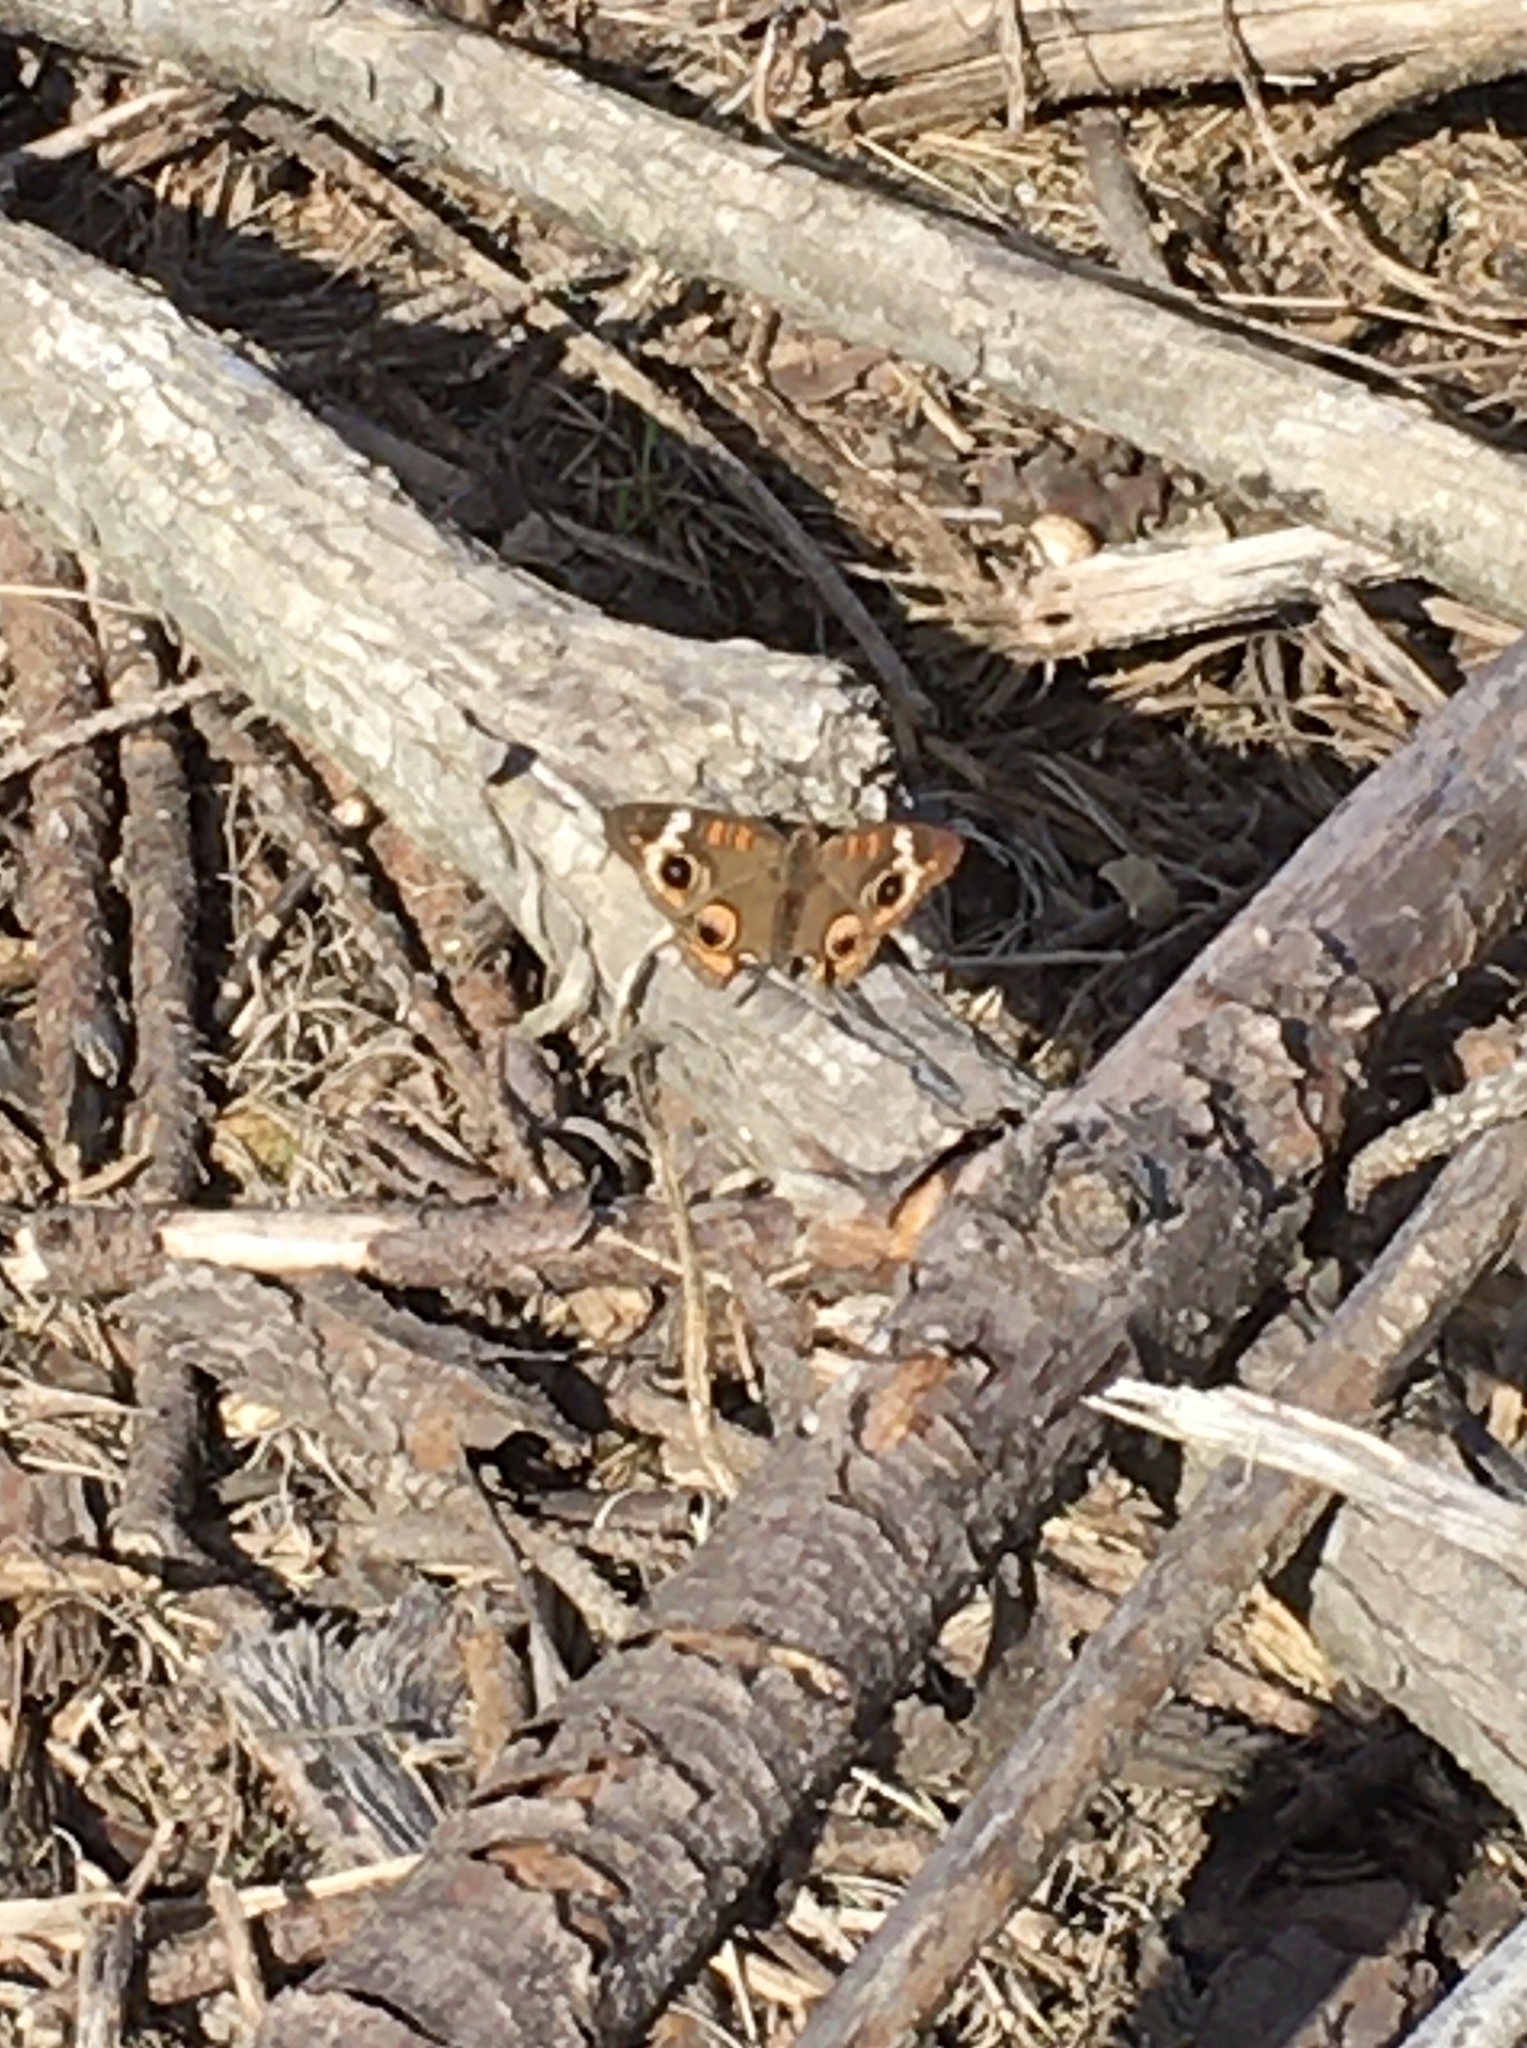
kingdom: Animalia
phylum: Arthropoda
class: Insecta
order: Lepidoptera
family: Nymphalidae
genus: Junonia
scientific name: Junonia coenia
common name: Common buckeye
